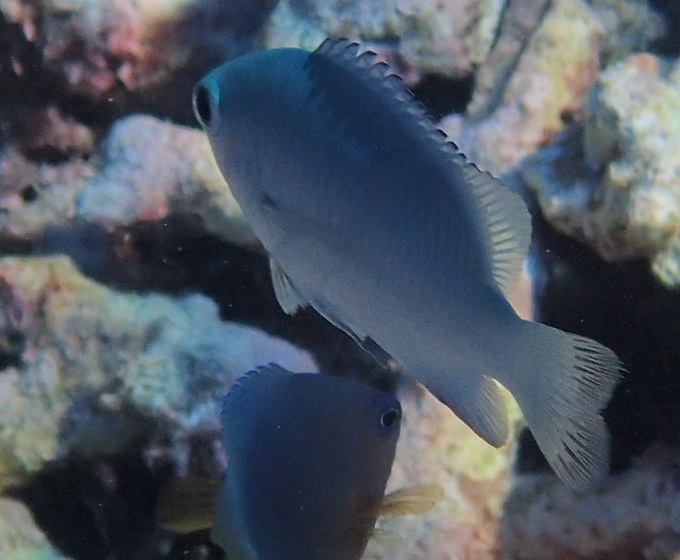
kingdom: Animalia
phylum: Chordata
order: Perciformes
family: Pomacentridae
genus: Pomacentrus
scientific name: Pomacentrus lepidogenys
